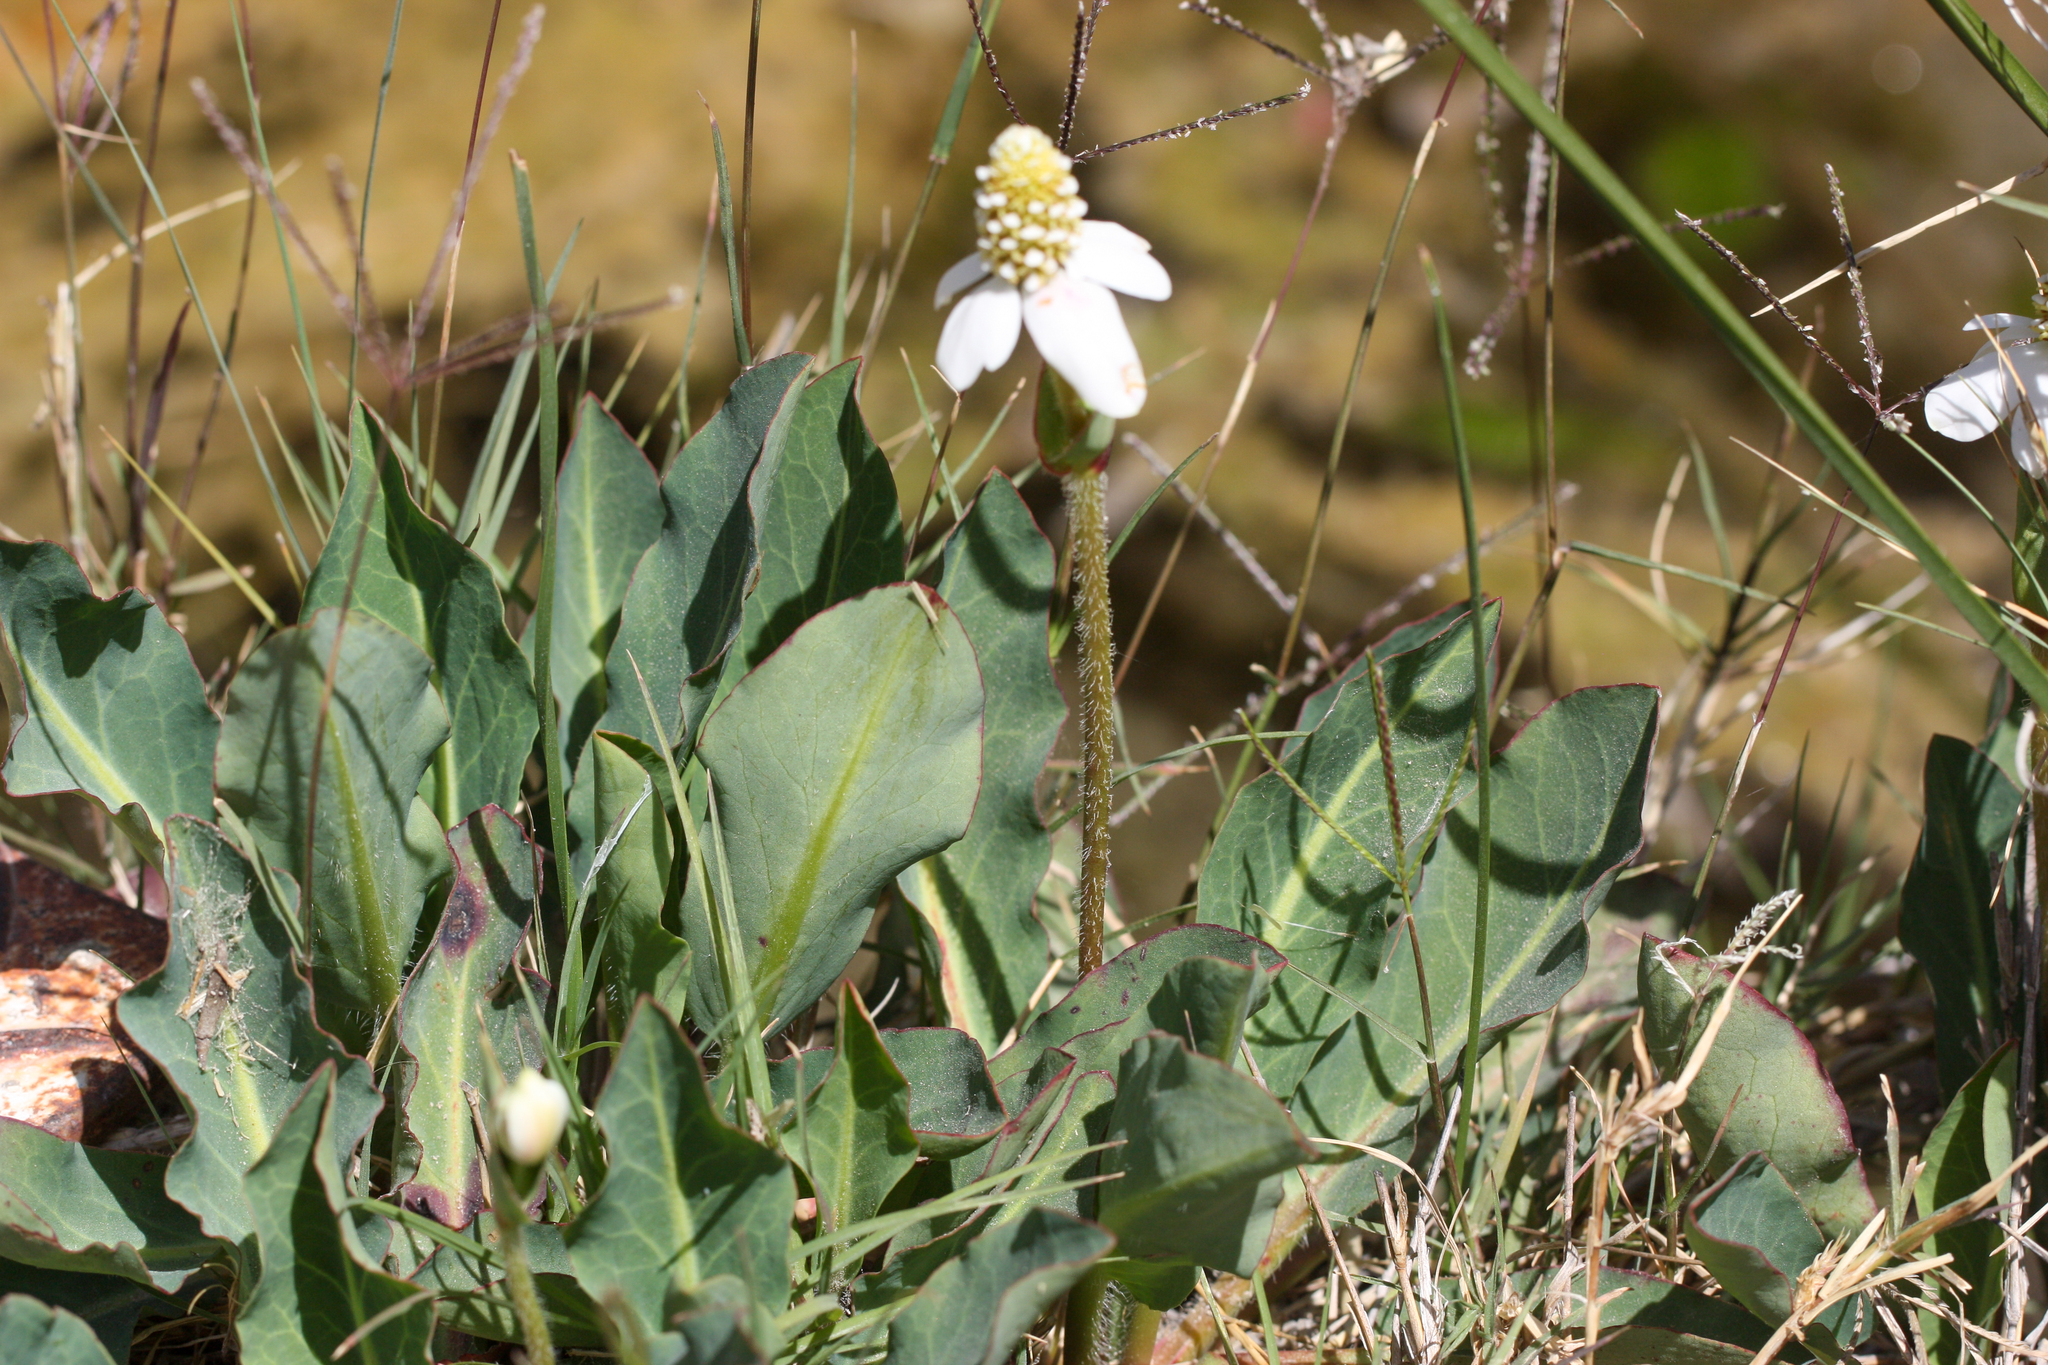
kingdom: Plantae
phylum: Tracheophyta
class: Magnoliopsida
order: Piperales
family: Saururaceae
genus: Anemopsis
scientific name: Anemopsis californica
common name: Apache-beads
